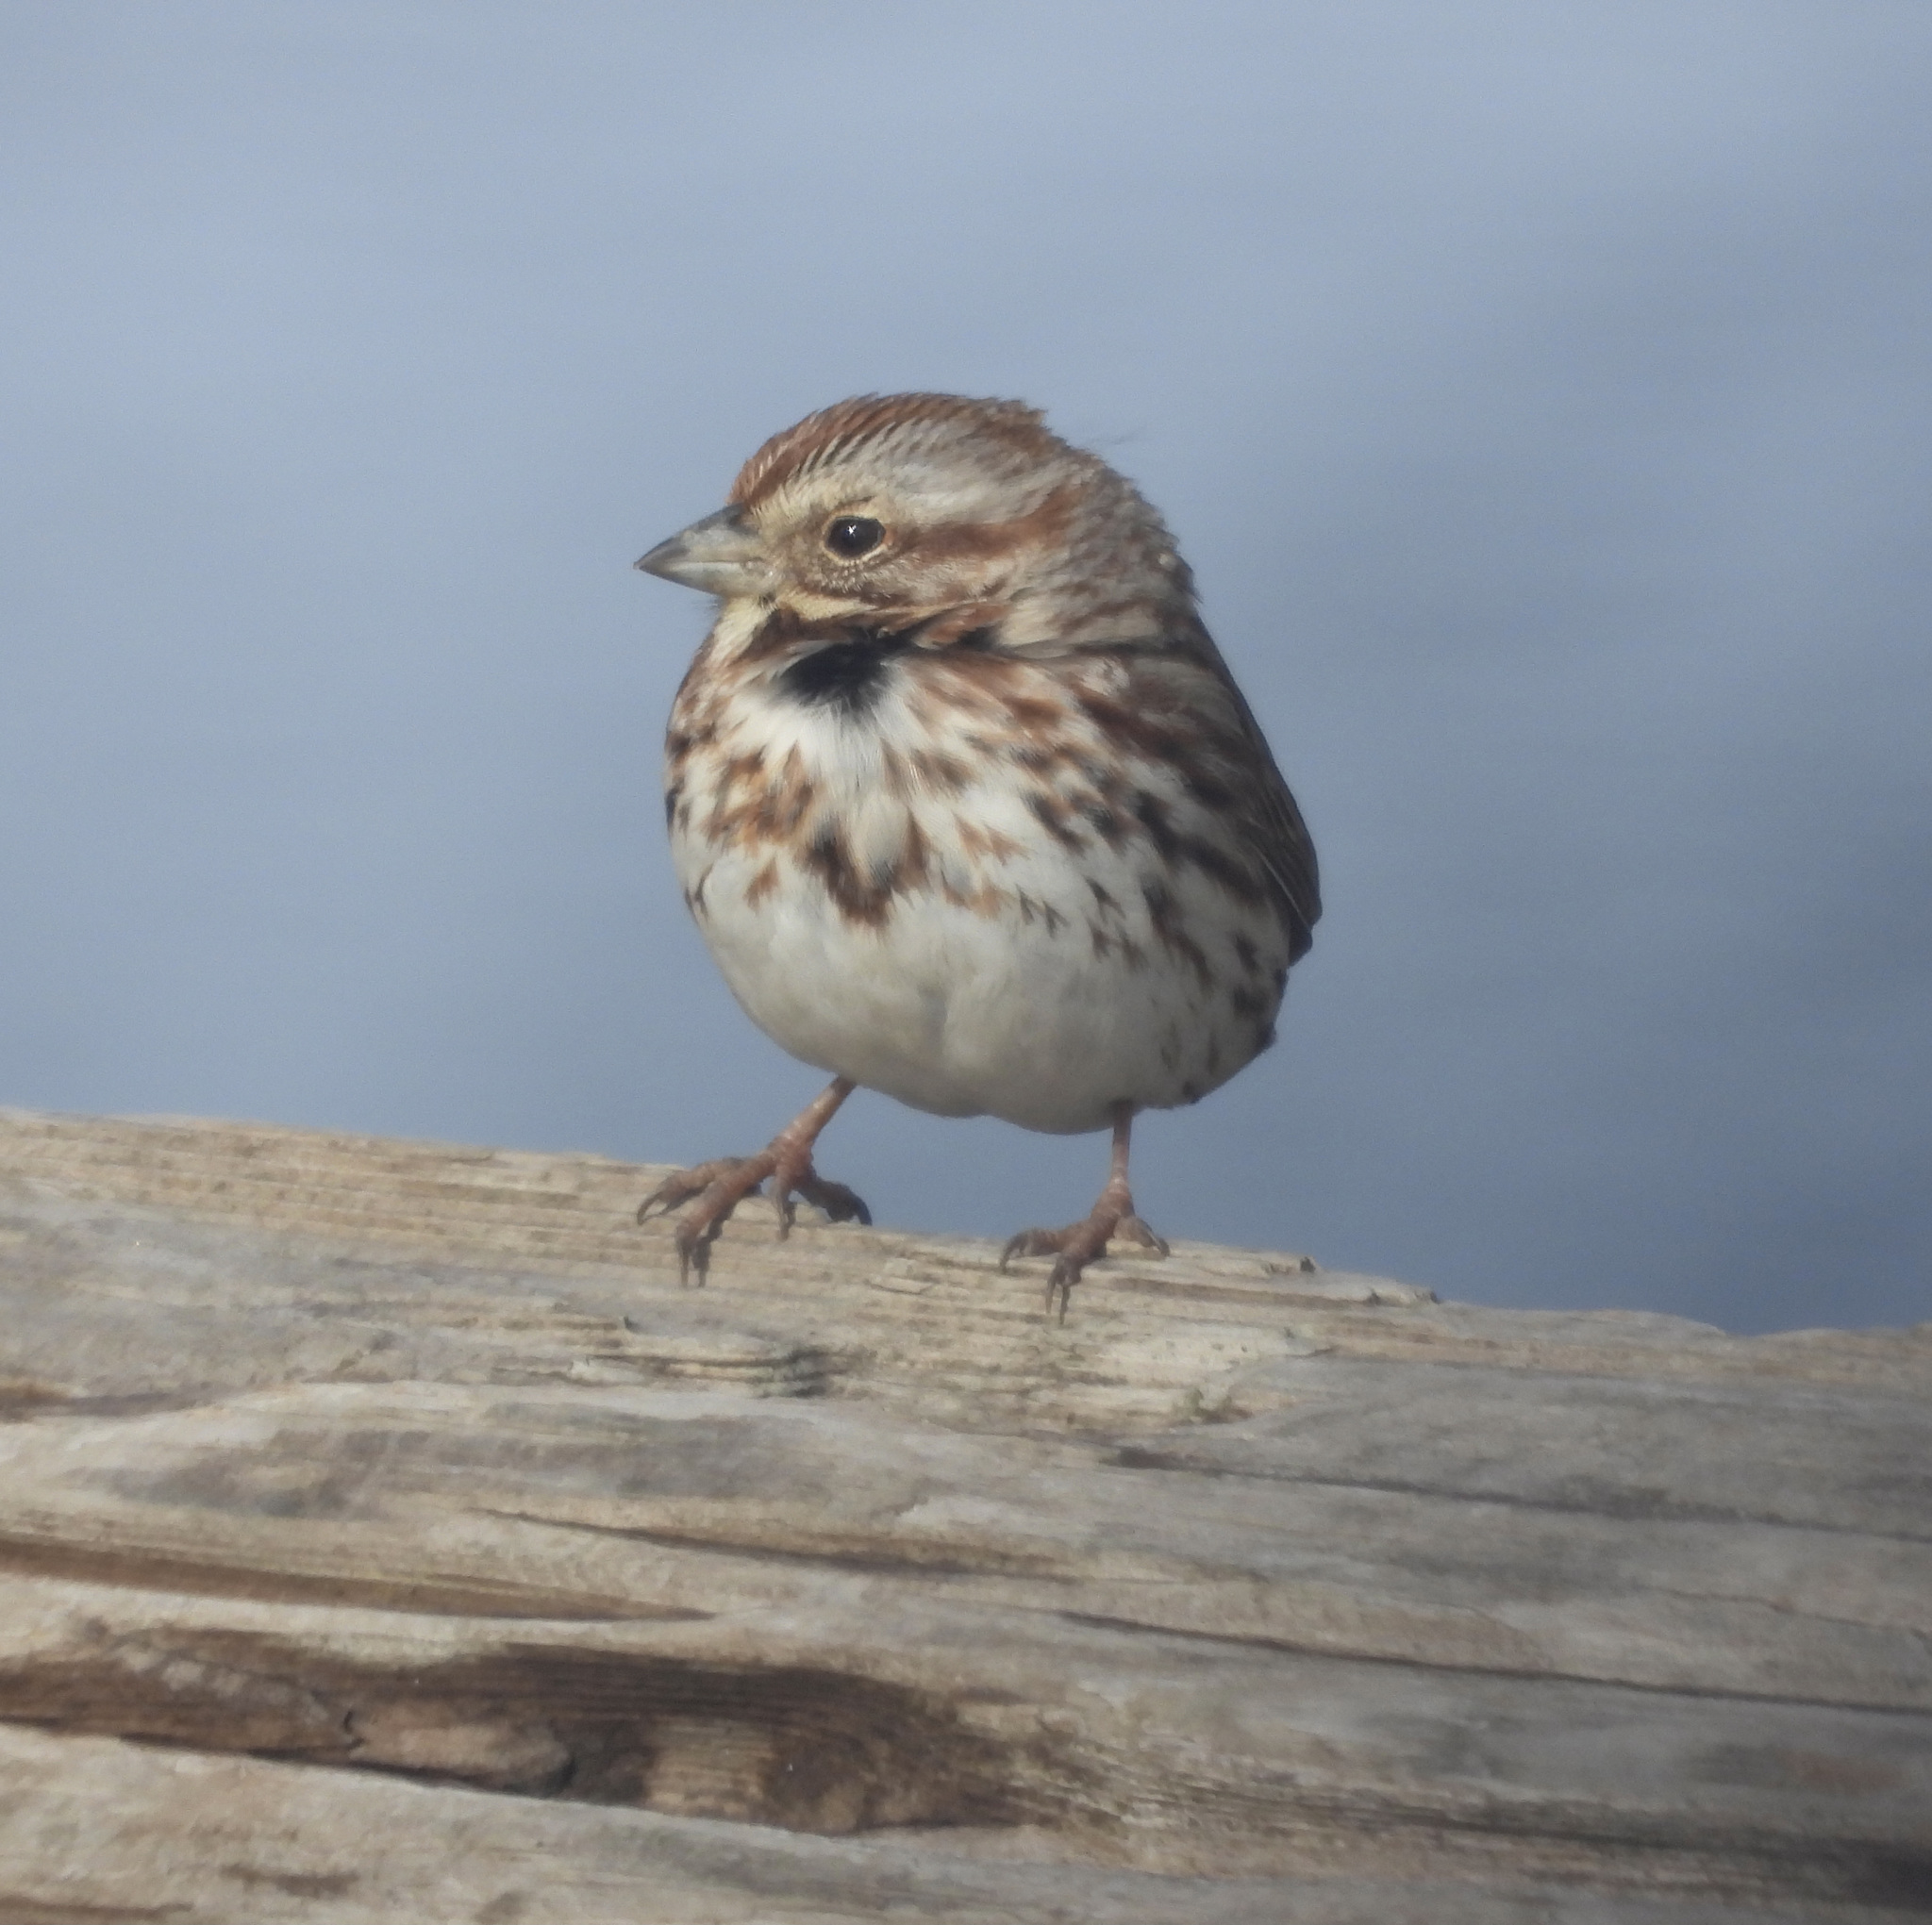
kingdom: Animalia
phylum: Chordata
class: Aves
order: Passeriformes
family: Passerellidae
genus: Melospiza
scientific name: Melospiza melodia
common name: Song sparrow
